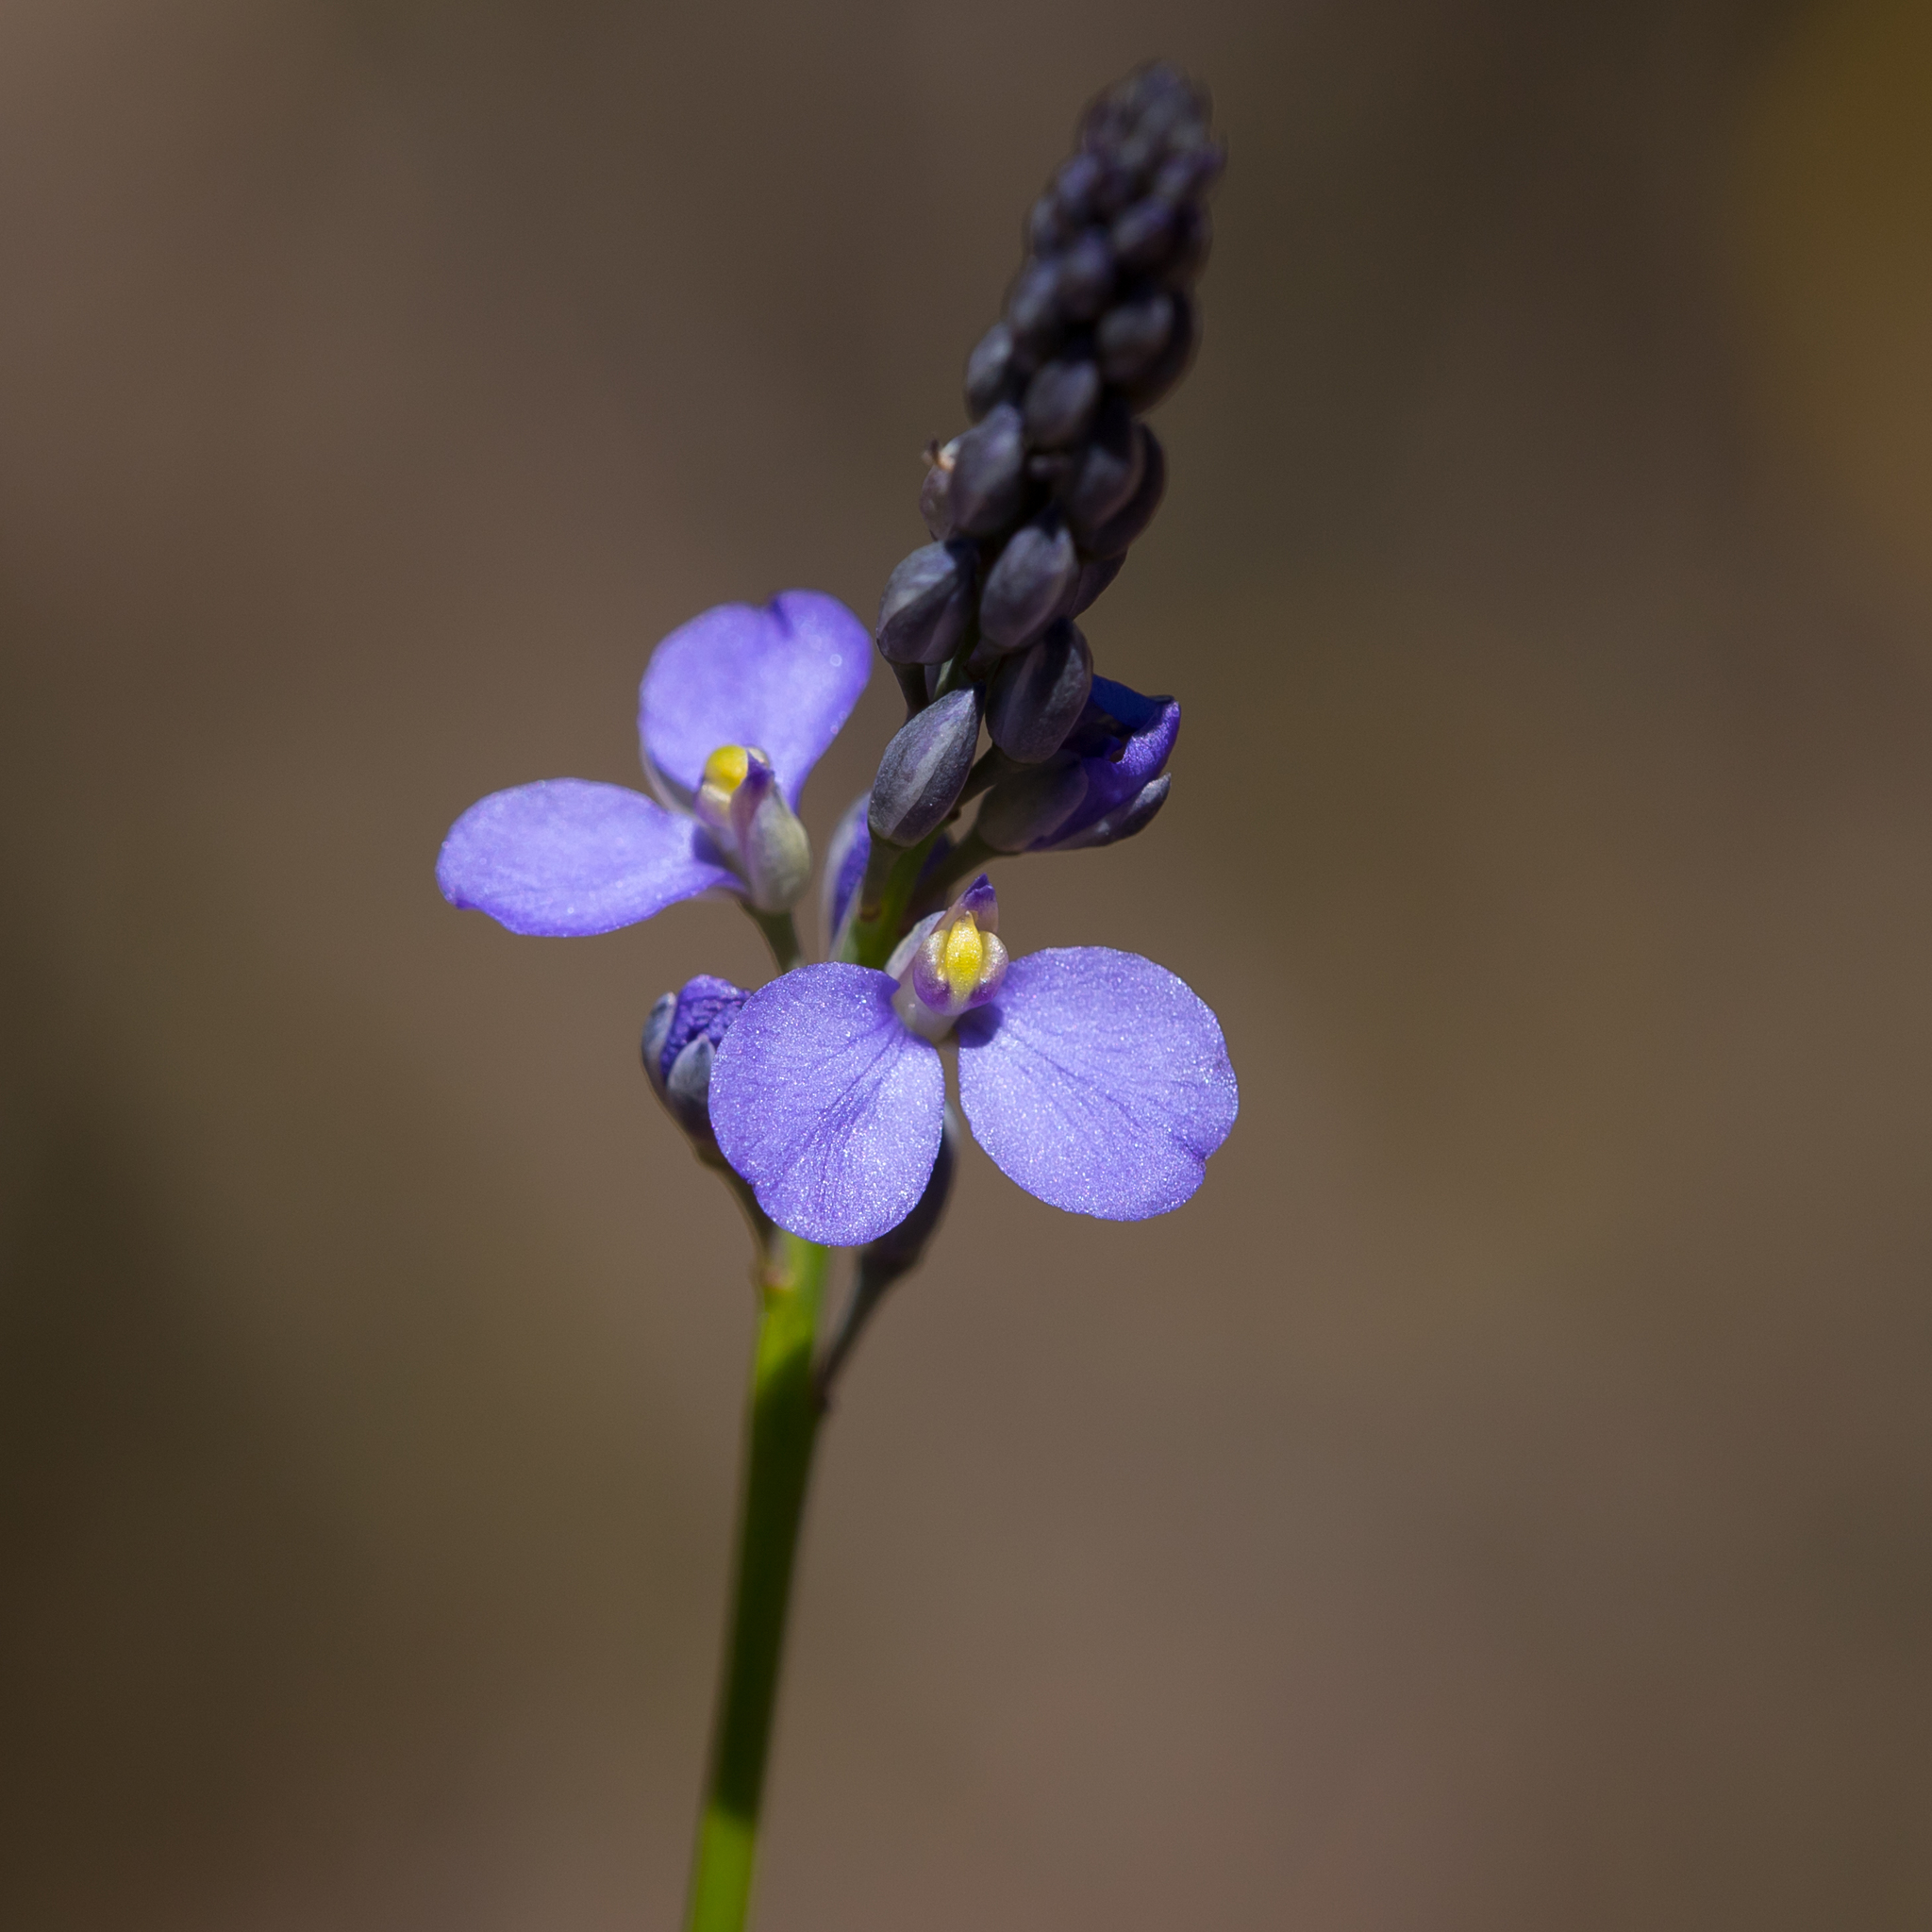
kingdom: Plantae
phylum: Tracheophyta
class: Magnoliopsida
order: Fabales
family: Polygalaceae
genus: Comesperma
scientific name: Comesperma calymega
